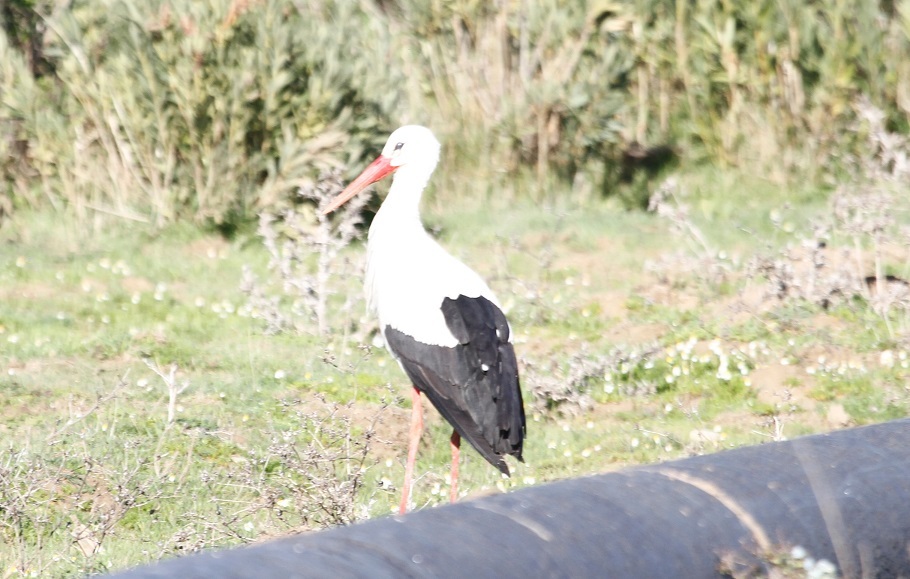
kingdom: Animalia
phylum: Chordata
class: Aves
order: Ciconiiformes
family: Ciconiidae
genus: Ciconia
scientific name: Ciconia ciconia
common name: White stork
